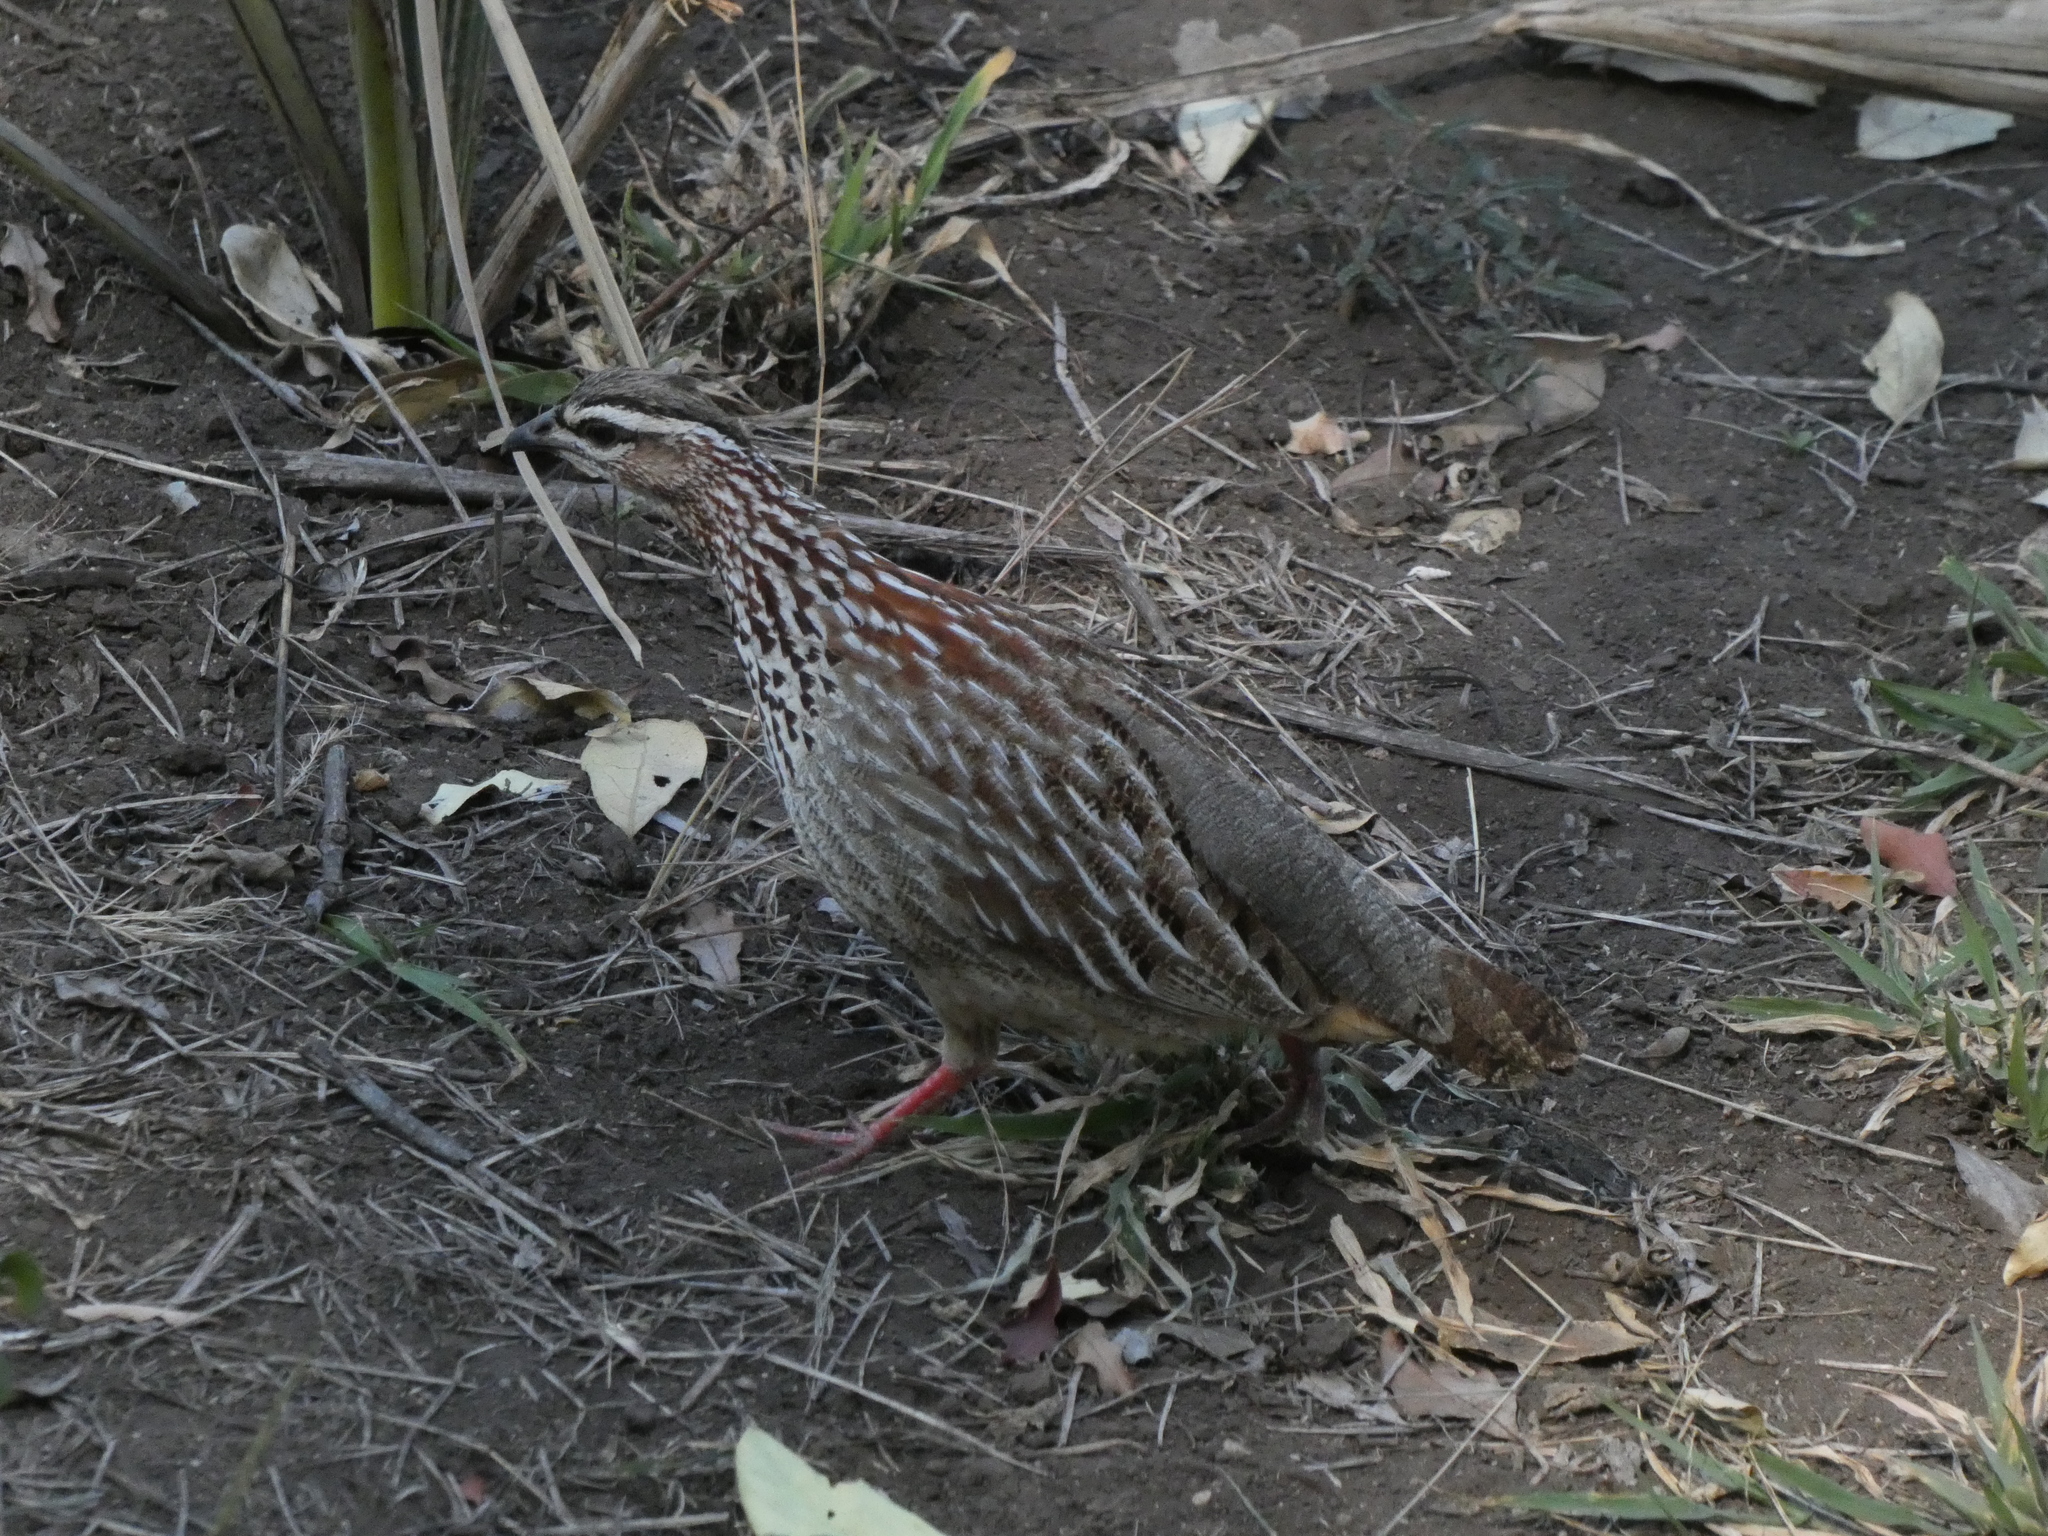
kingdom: Animalia
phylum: Chordata
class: Aves
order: Galliformes
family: Phasianidae
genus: Ortygornis
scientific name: Ortygornis sephaena
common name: Crested francolin
